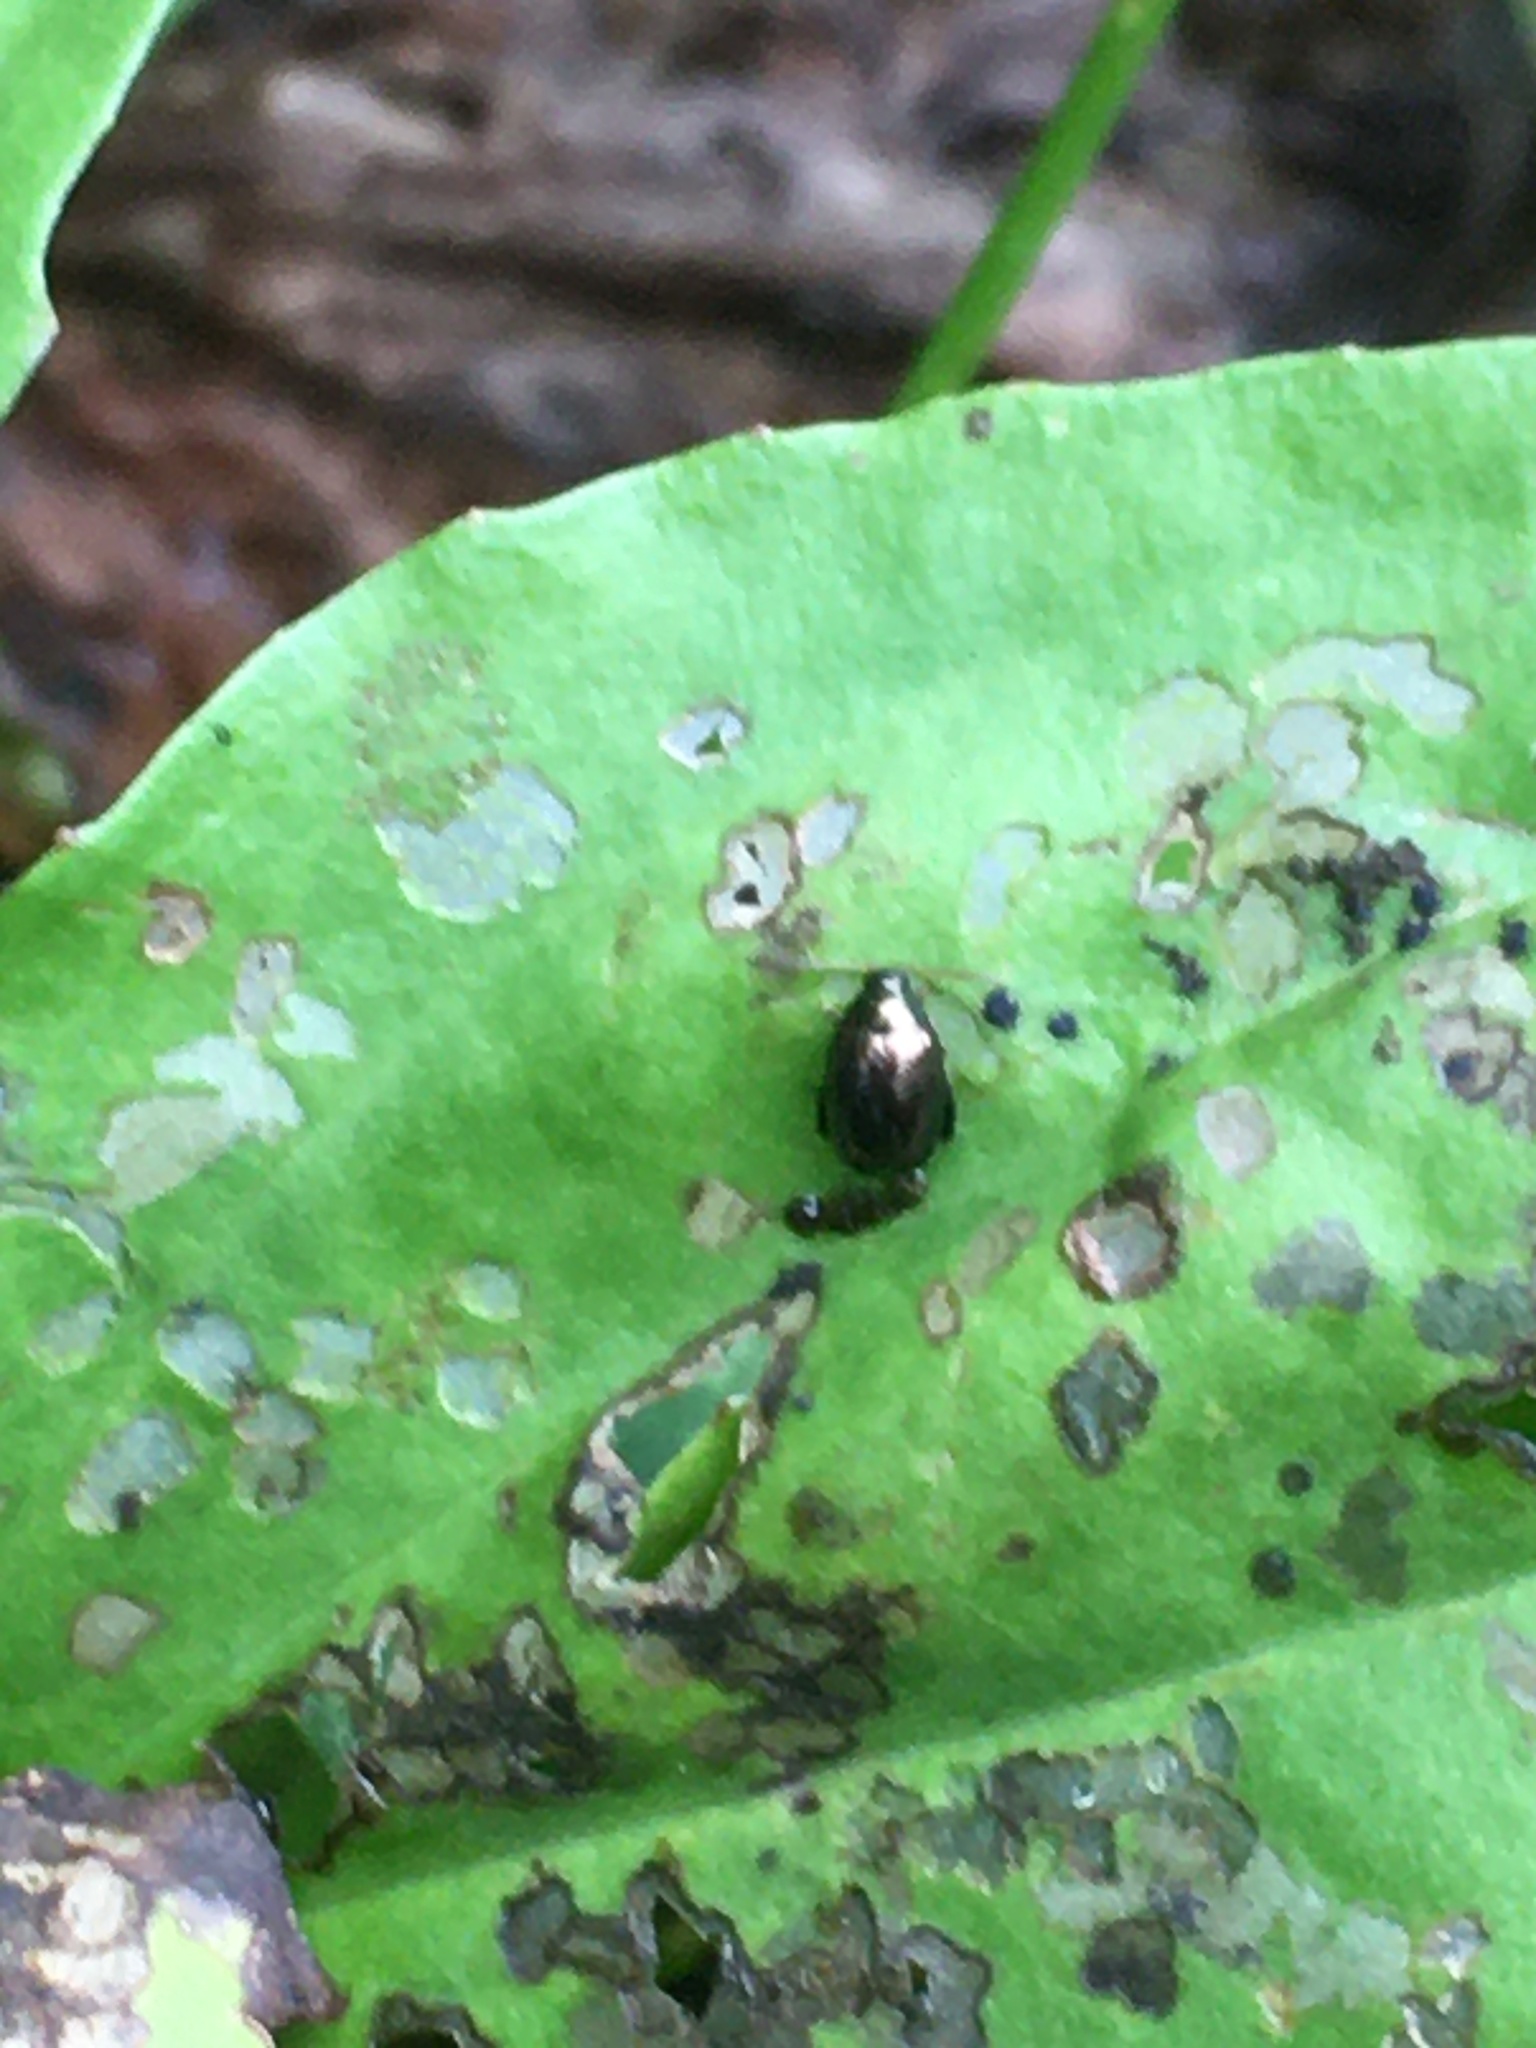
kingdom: Animalia
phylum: Arthropoda
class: Insecta
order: Coleoptera
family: Chrysomelidae
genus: Dibolia
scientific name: Dibolia borealis
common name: Northern plantain flea beetle
